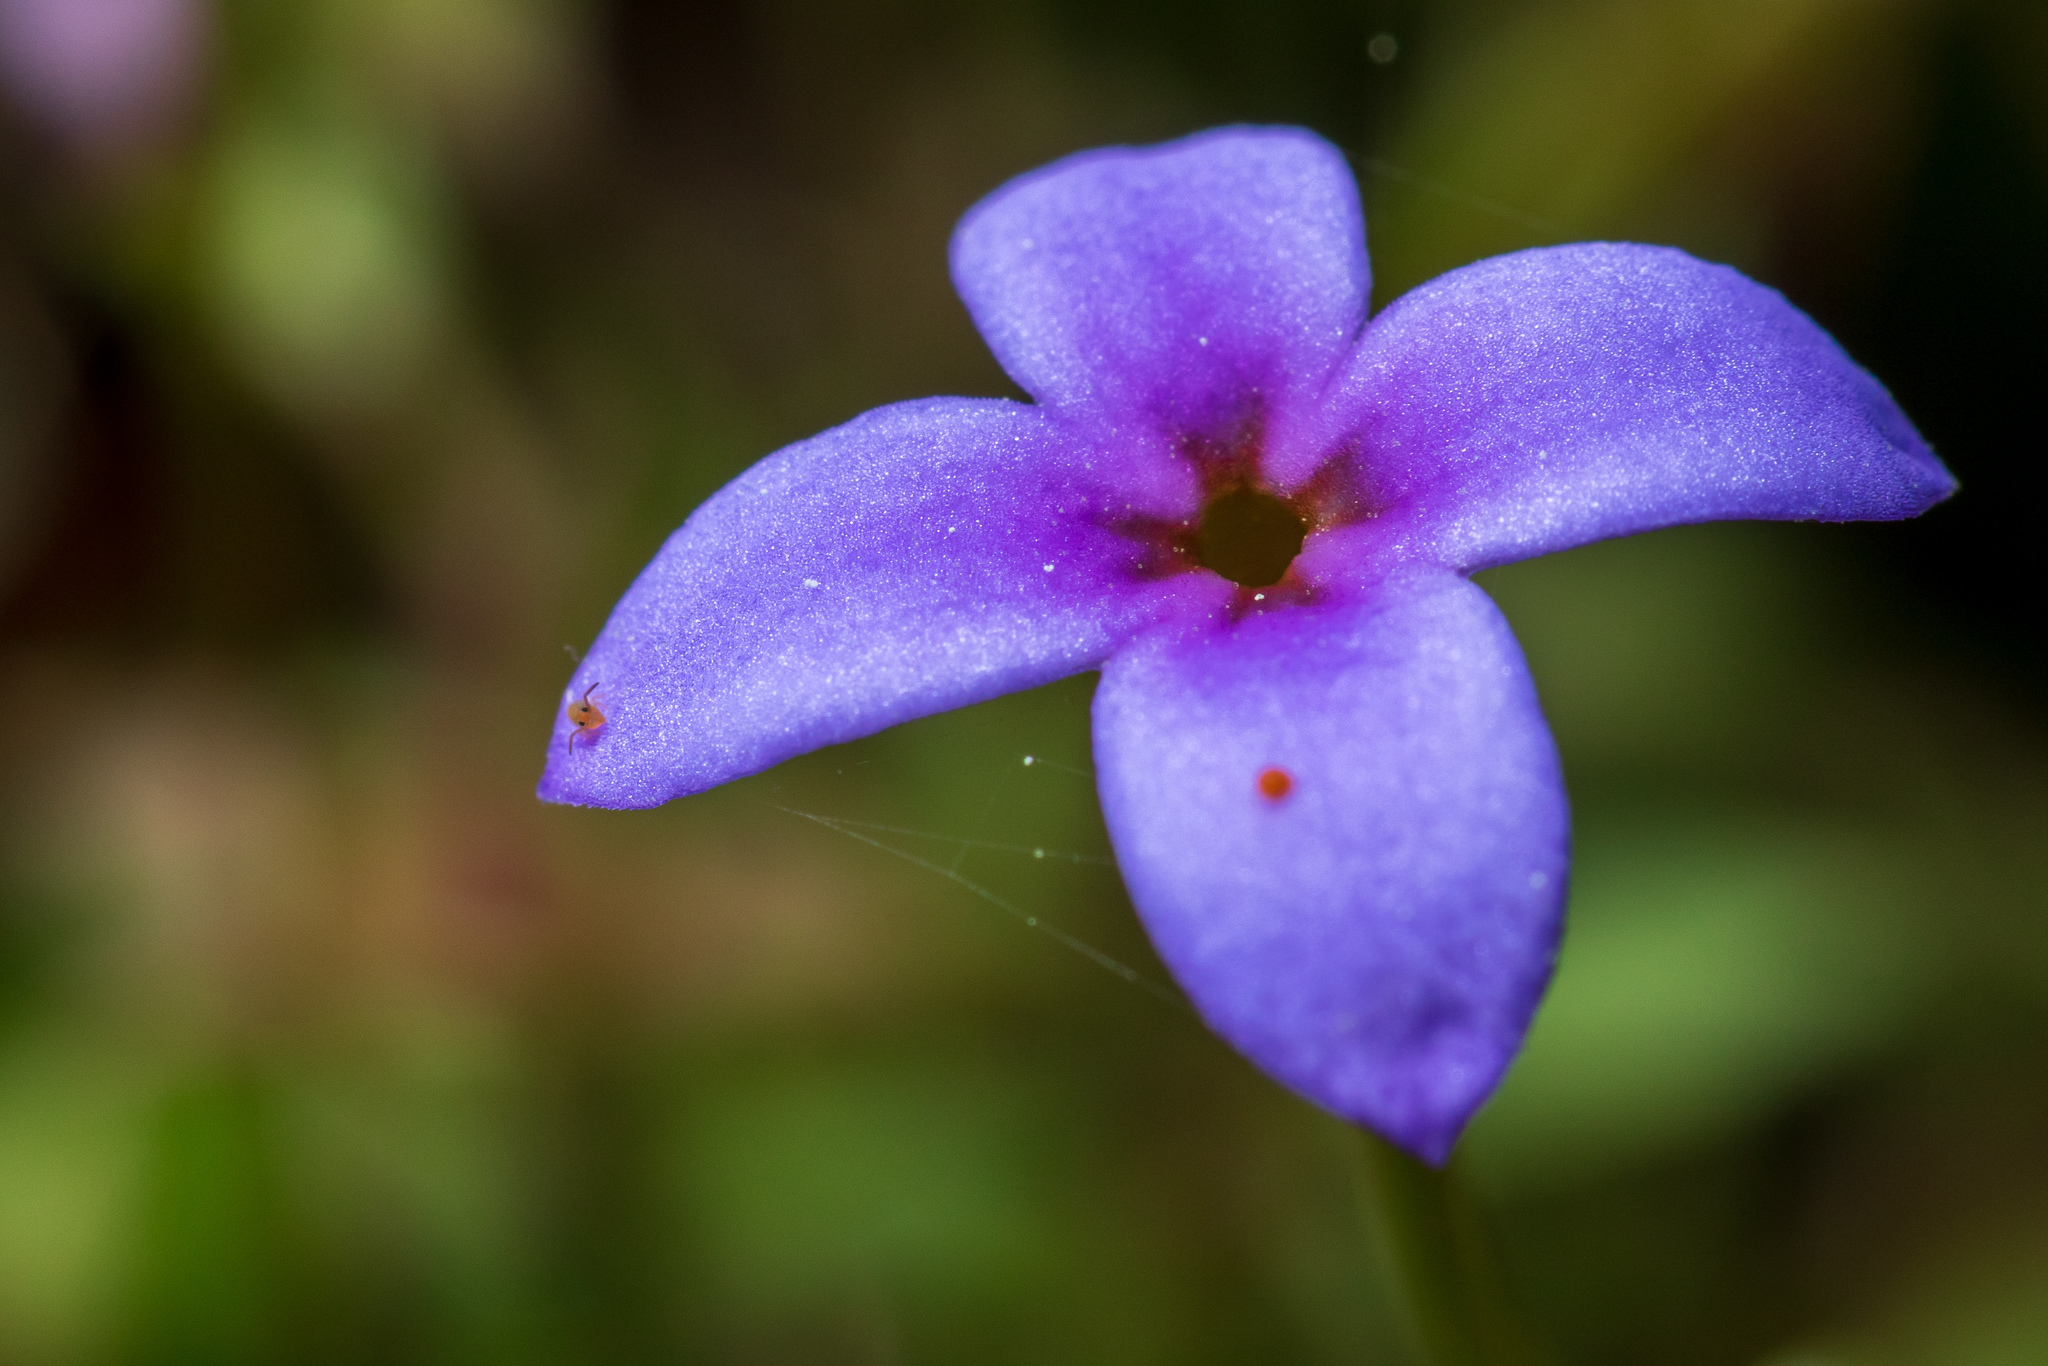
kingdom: Plantae
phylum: Tracheophyta
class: Magnoliopsida
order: Gentianales
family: Rubiaceae
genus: Houstonia
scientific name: Houstonia pusilla
